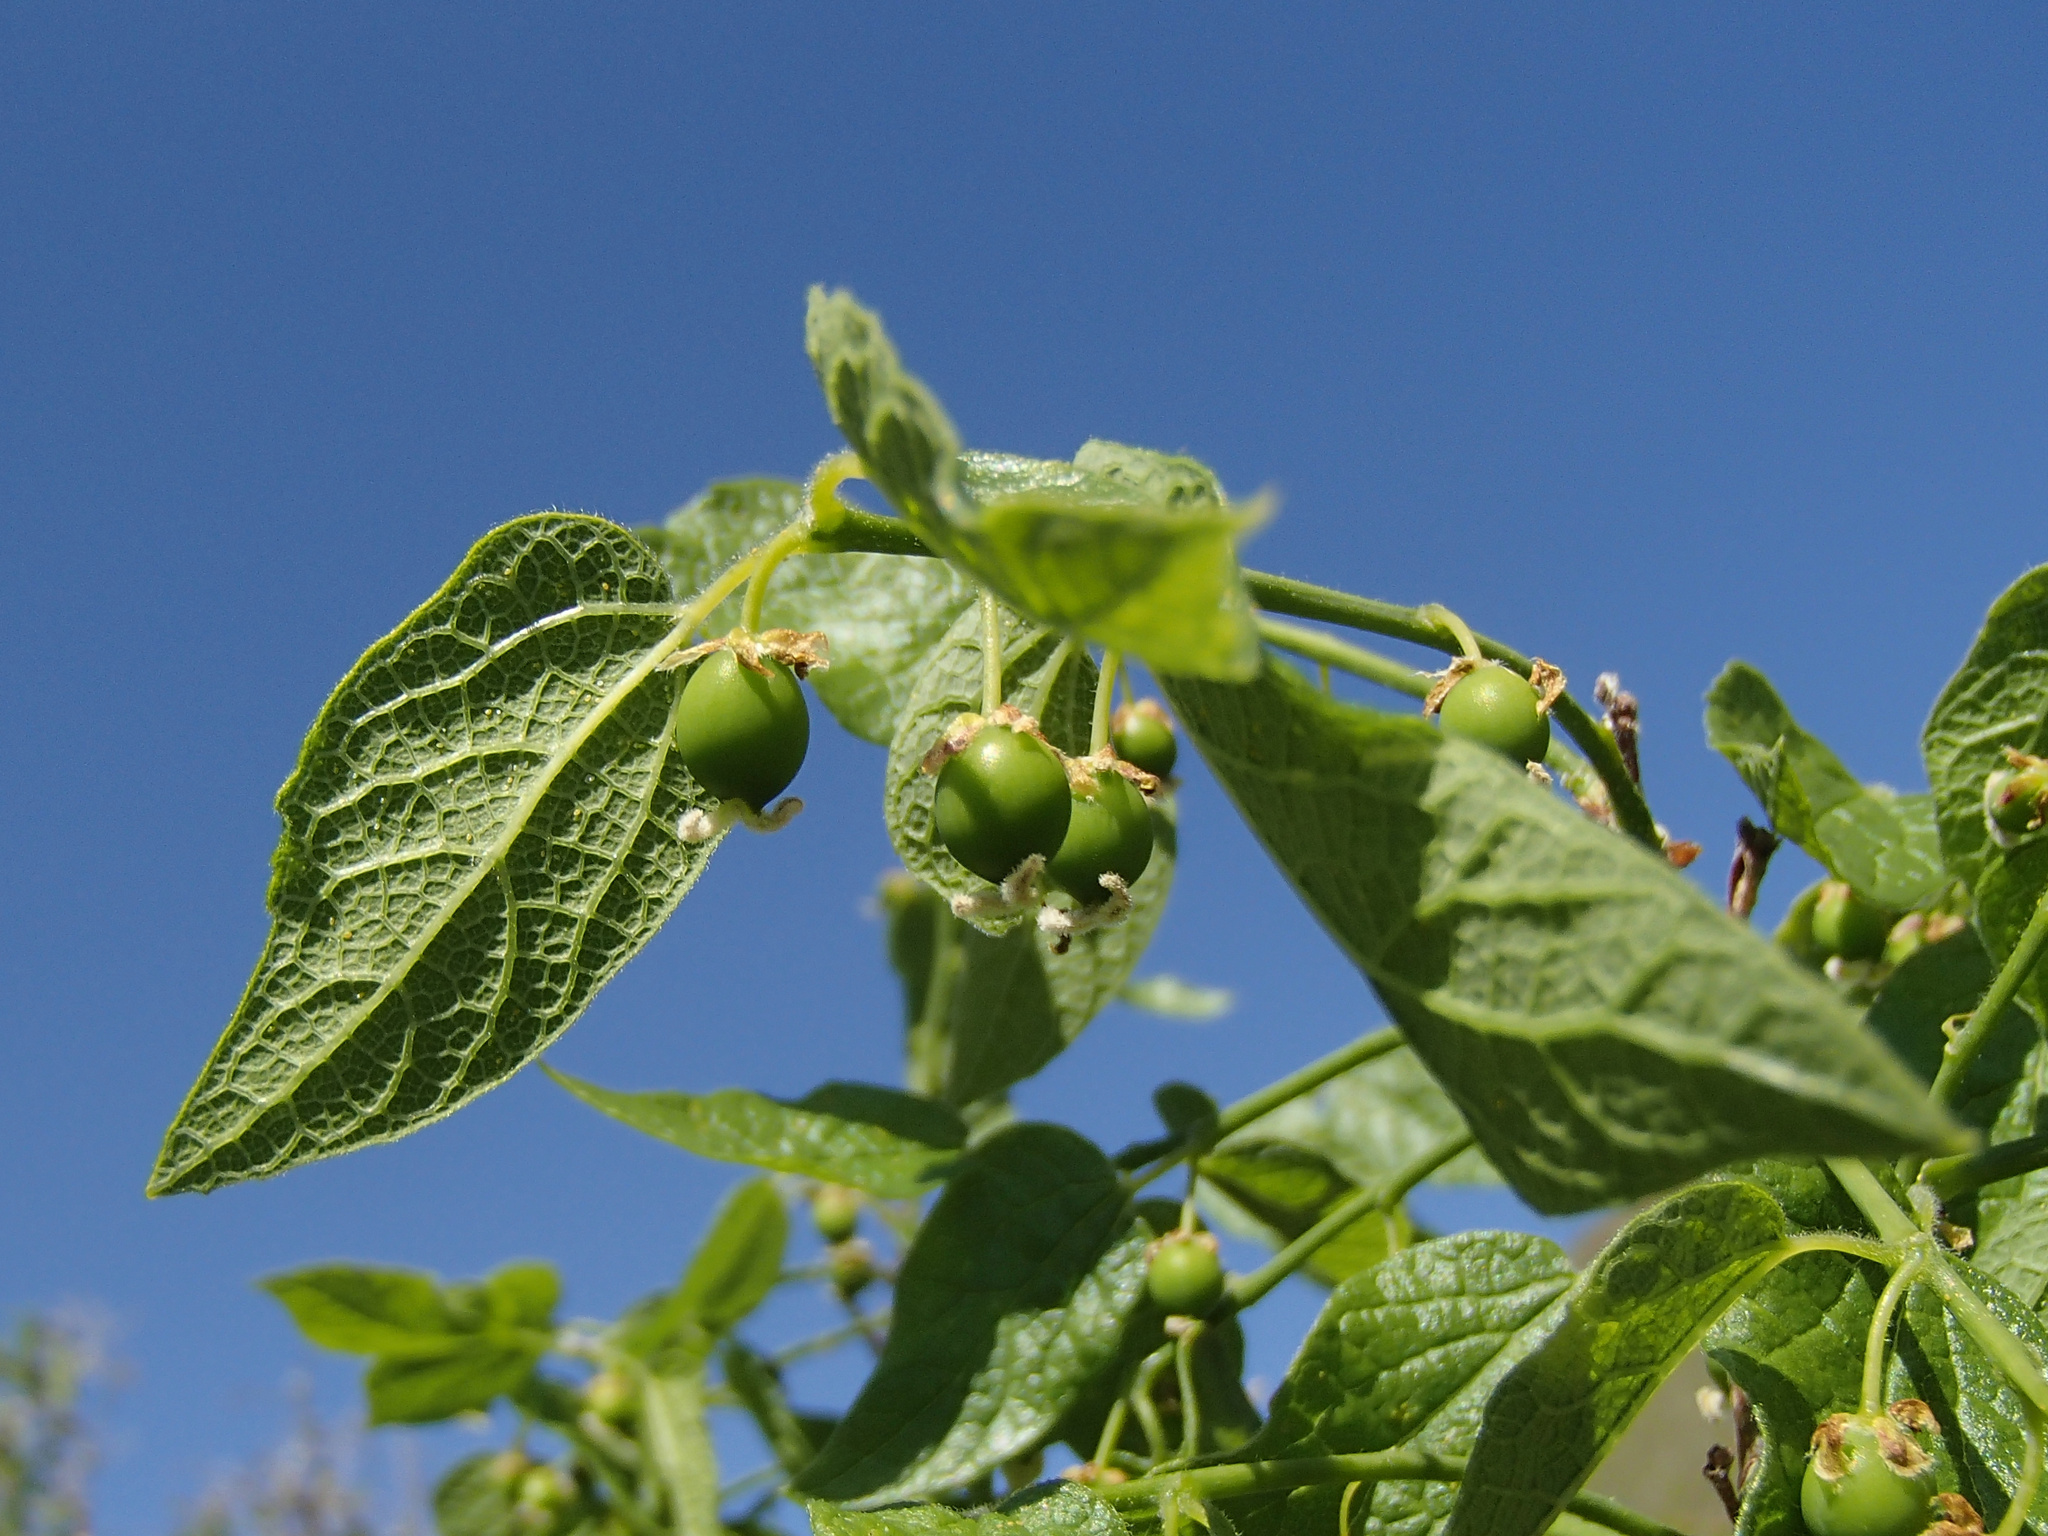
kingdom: Plantae
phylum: Tracheophyta
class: Magnoliopsida
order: Rosales
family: Cannabaceae
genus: Celtis
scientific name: Celtis reticulata
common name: Netleaf hackberry
